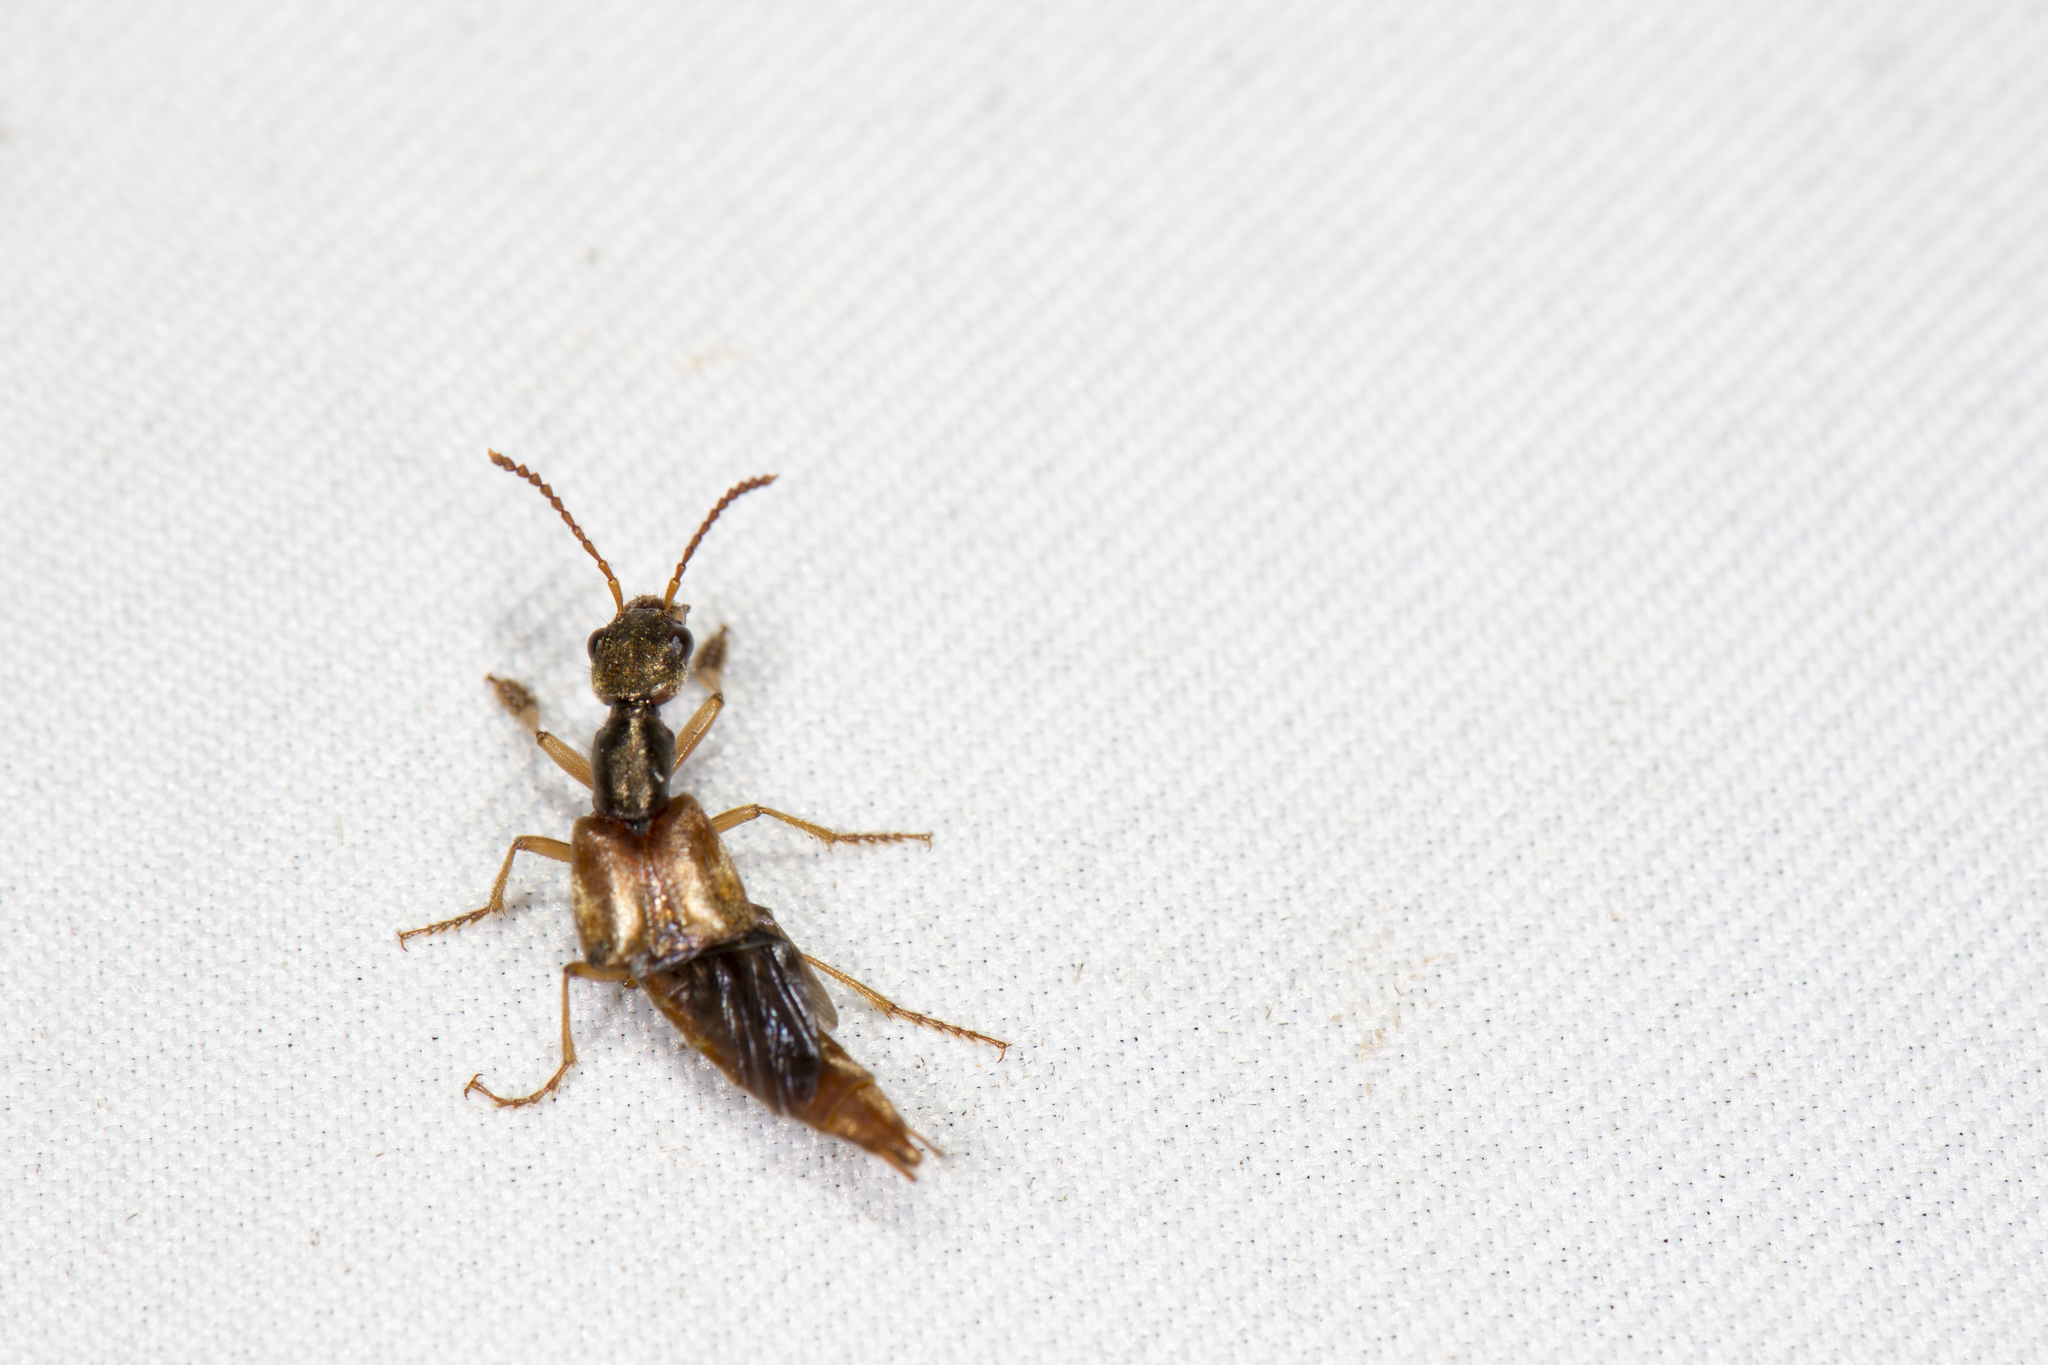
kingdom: Animalia
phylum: Arthropoda
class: Insecta
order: Coleoptera
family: Staphylinidae
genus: Eucibdelus
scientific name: Eucibdelus sauteri
